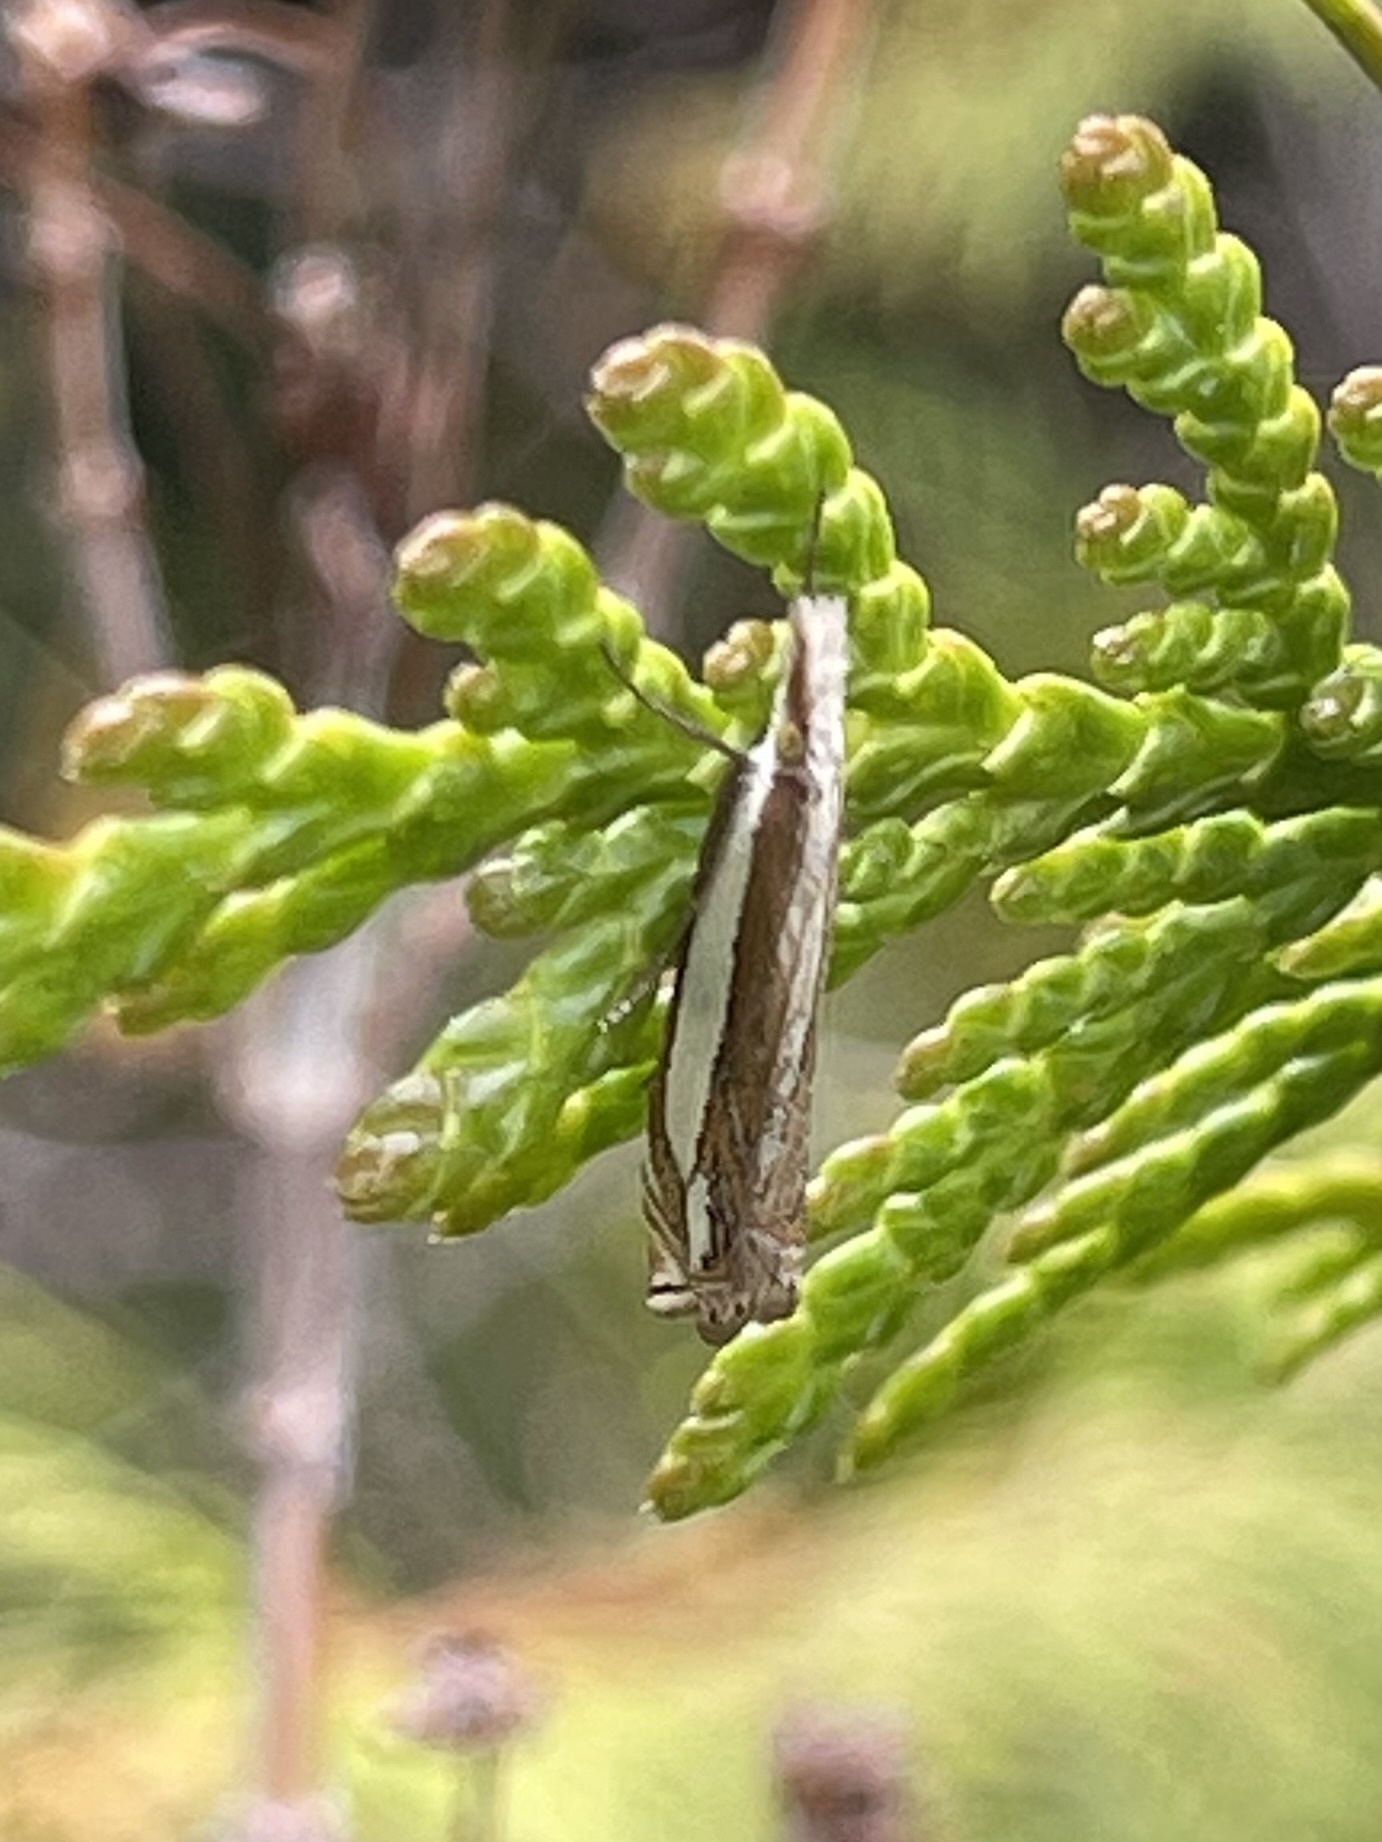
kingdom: Animalia
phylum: Arthropoda
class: Insecta
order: Lepidoptera
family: Crambidae
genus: Crambus
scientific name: Crambus pascuella
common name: Inlaid grass-veneer
